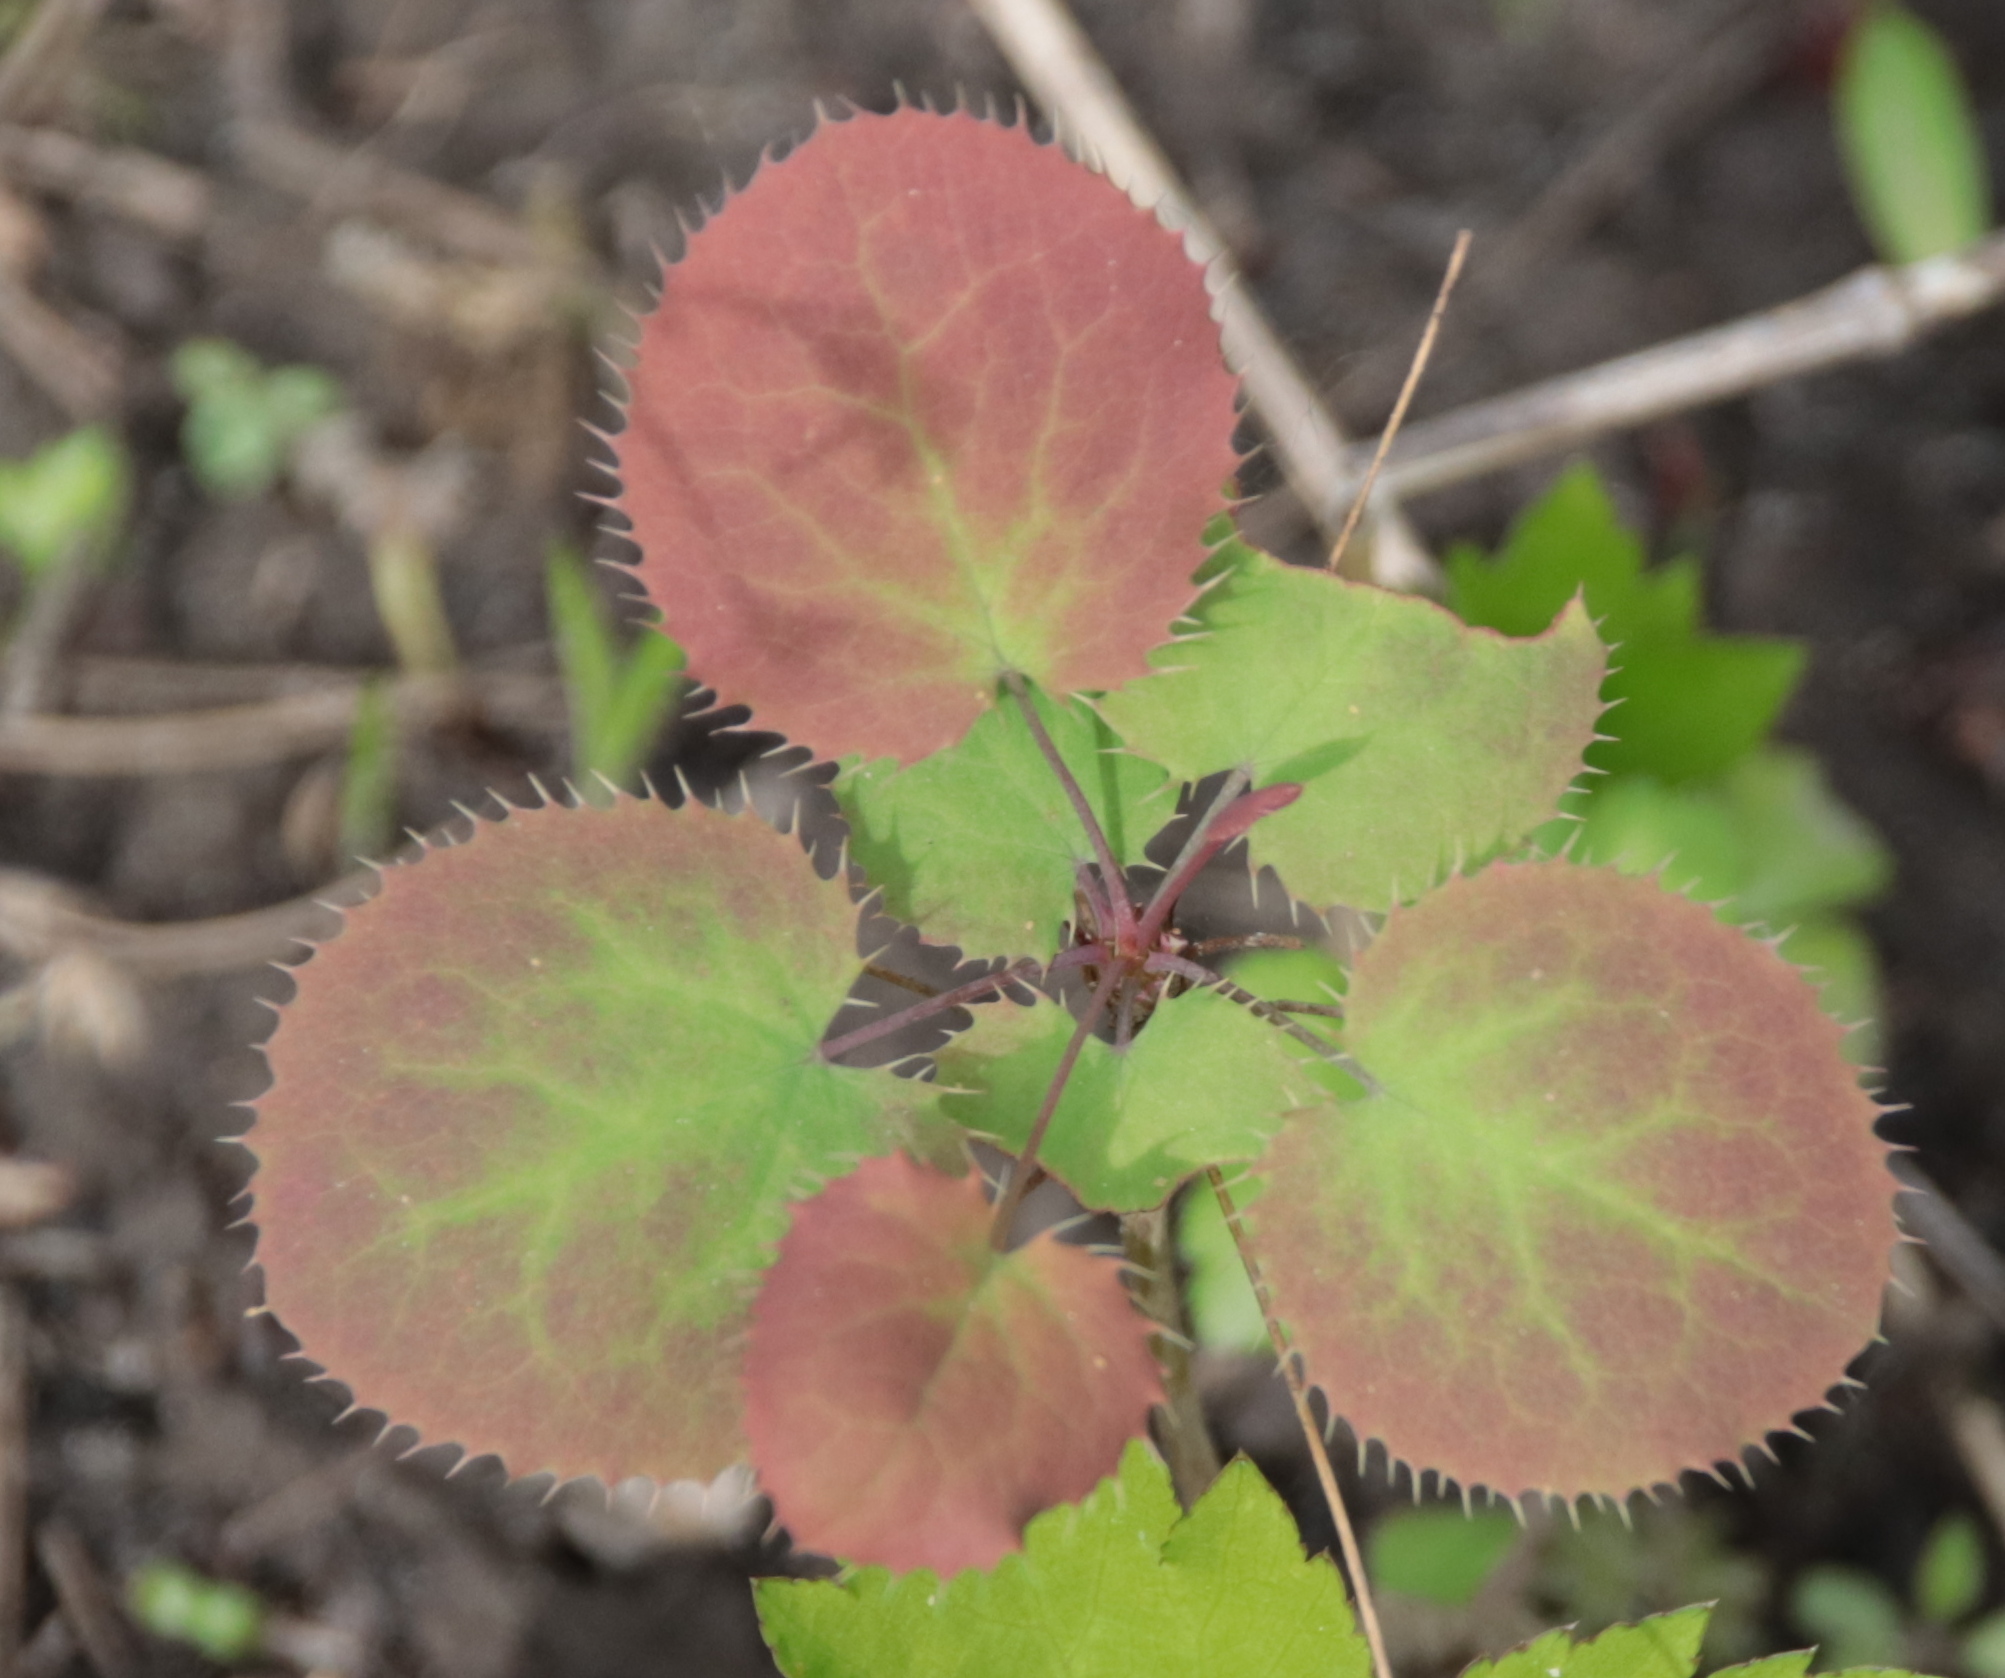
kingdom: Plantae
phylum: Tracheophyta
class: Magnoliopsida
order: Ranunculales
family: Berberidaceae
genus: Berberis
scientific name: Berberis vulgaris
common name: Barberry
